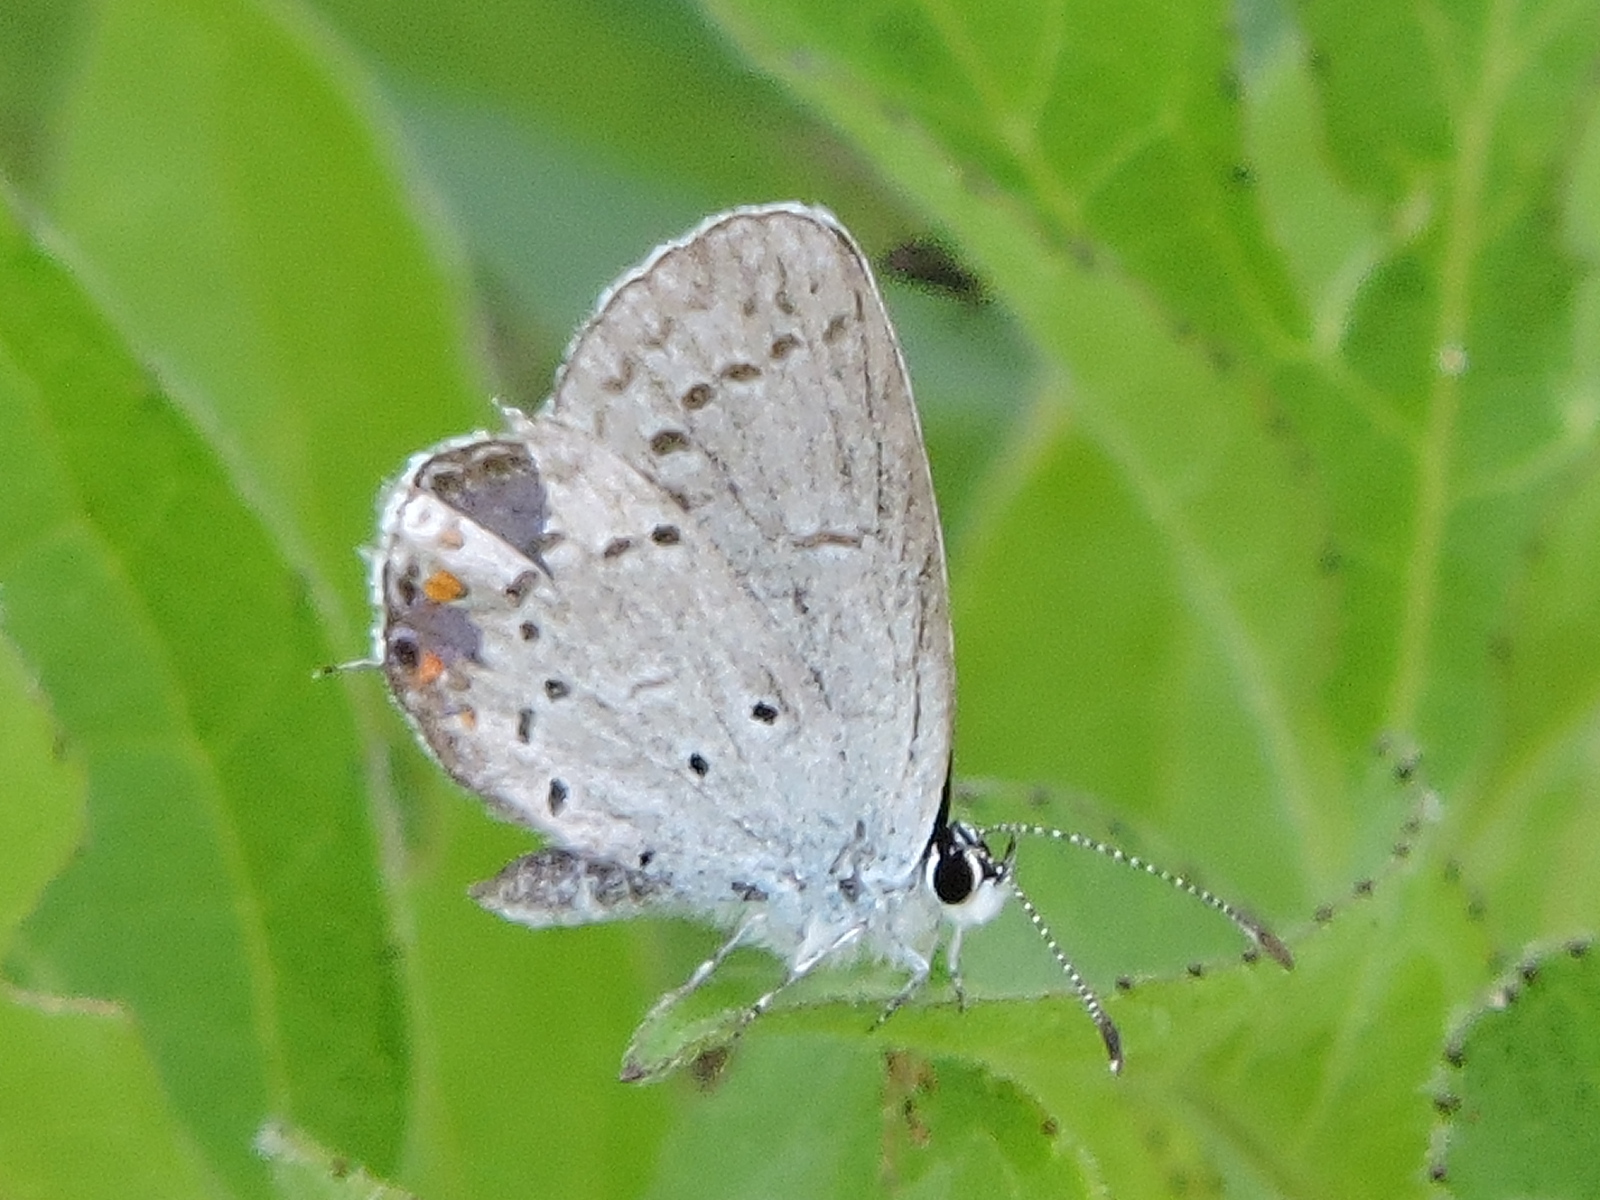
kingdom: Animalia
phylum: Arthropoda
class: Insecta
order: Lepidoptera
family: Lycaenidae
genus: Elkalyce
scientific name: Elkalyce comyntas
